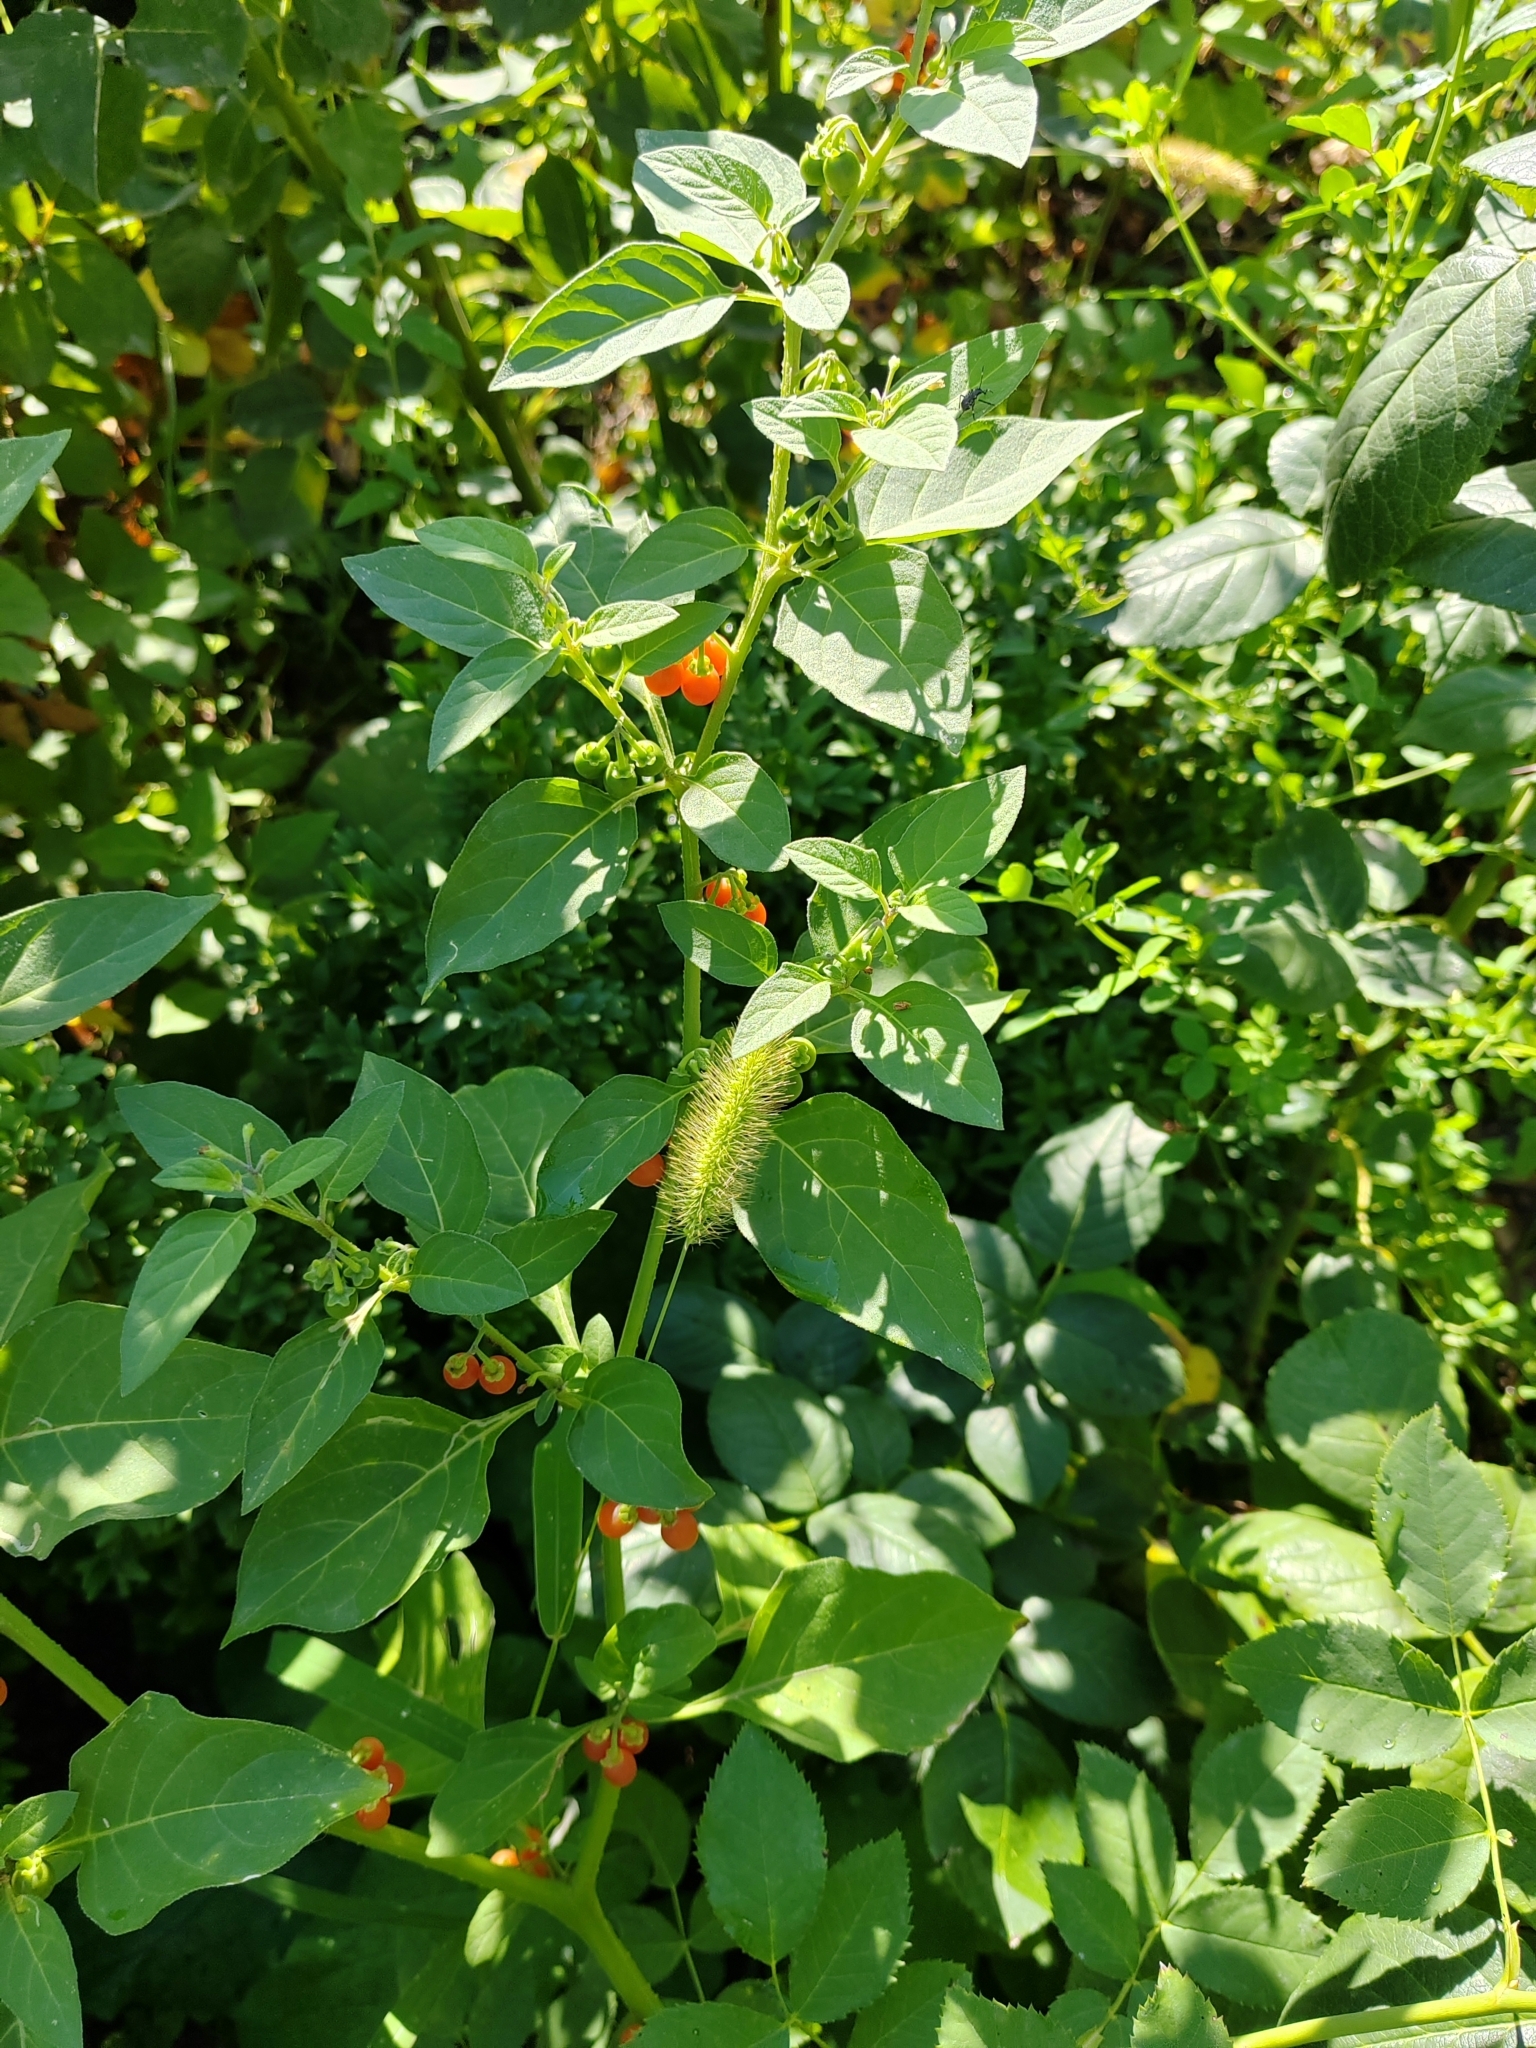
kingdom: Plantae
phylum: Tracheophyta
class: Magnoliopsida
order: Solanales
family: Solanaceae
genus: Solanum
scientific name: Solanum villosum
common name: Red nightshade
